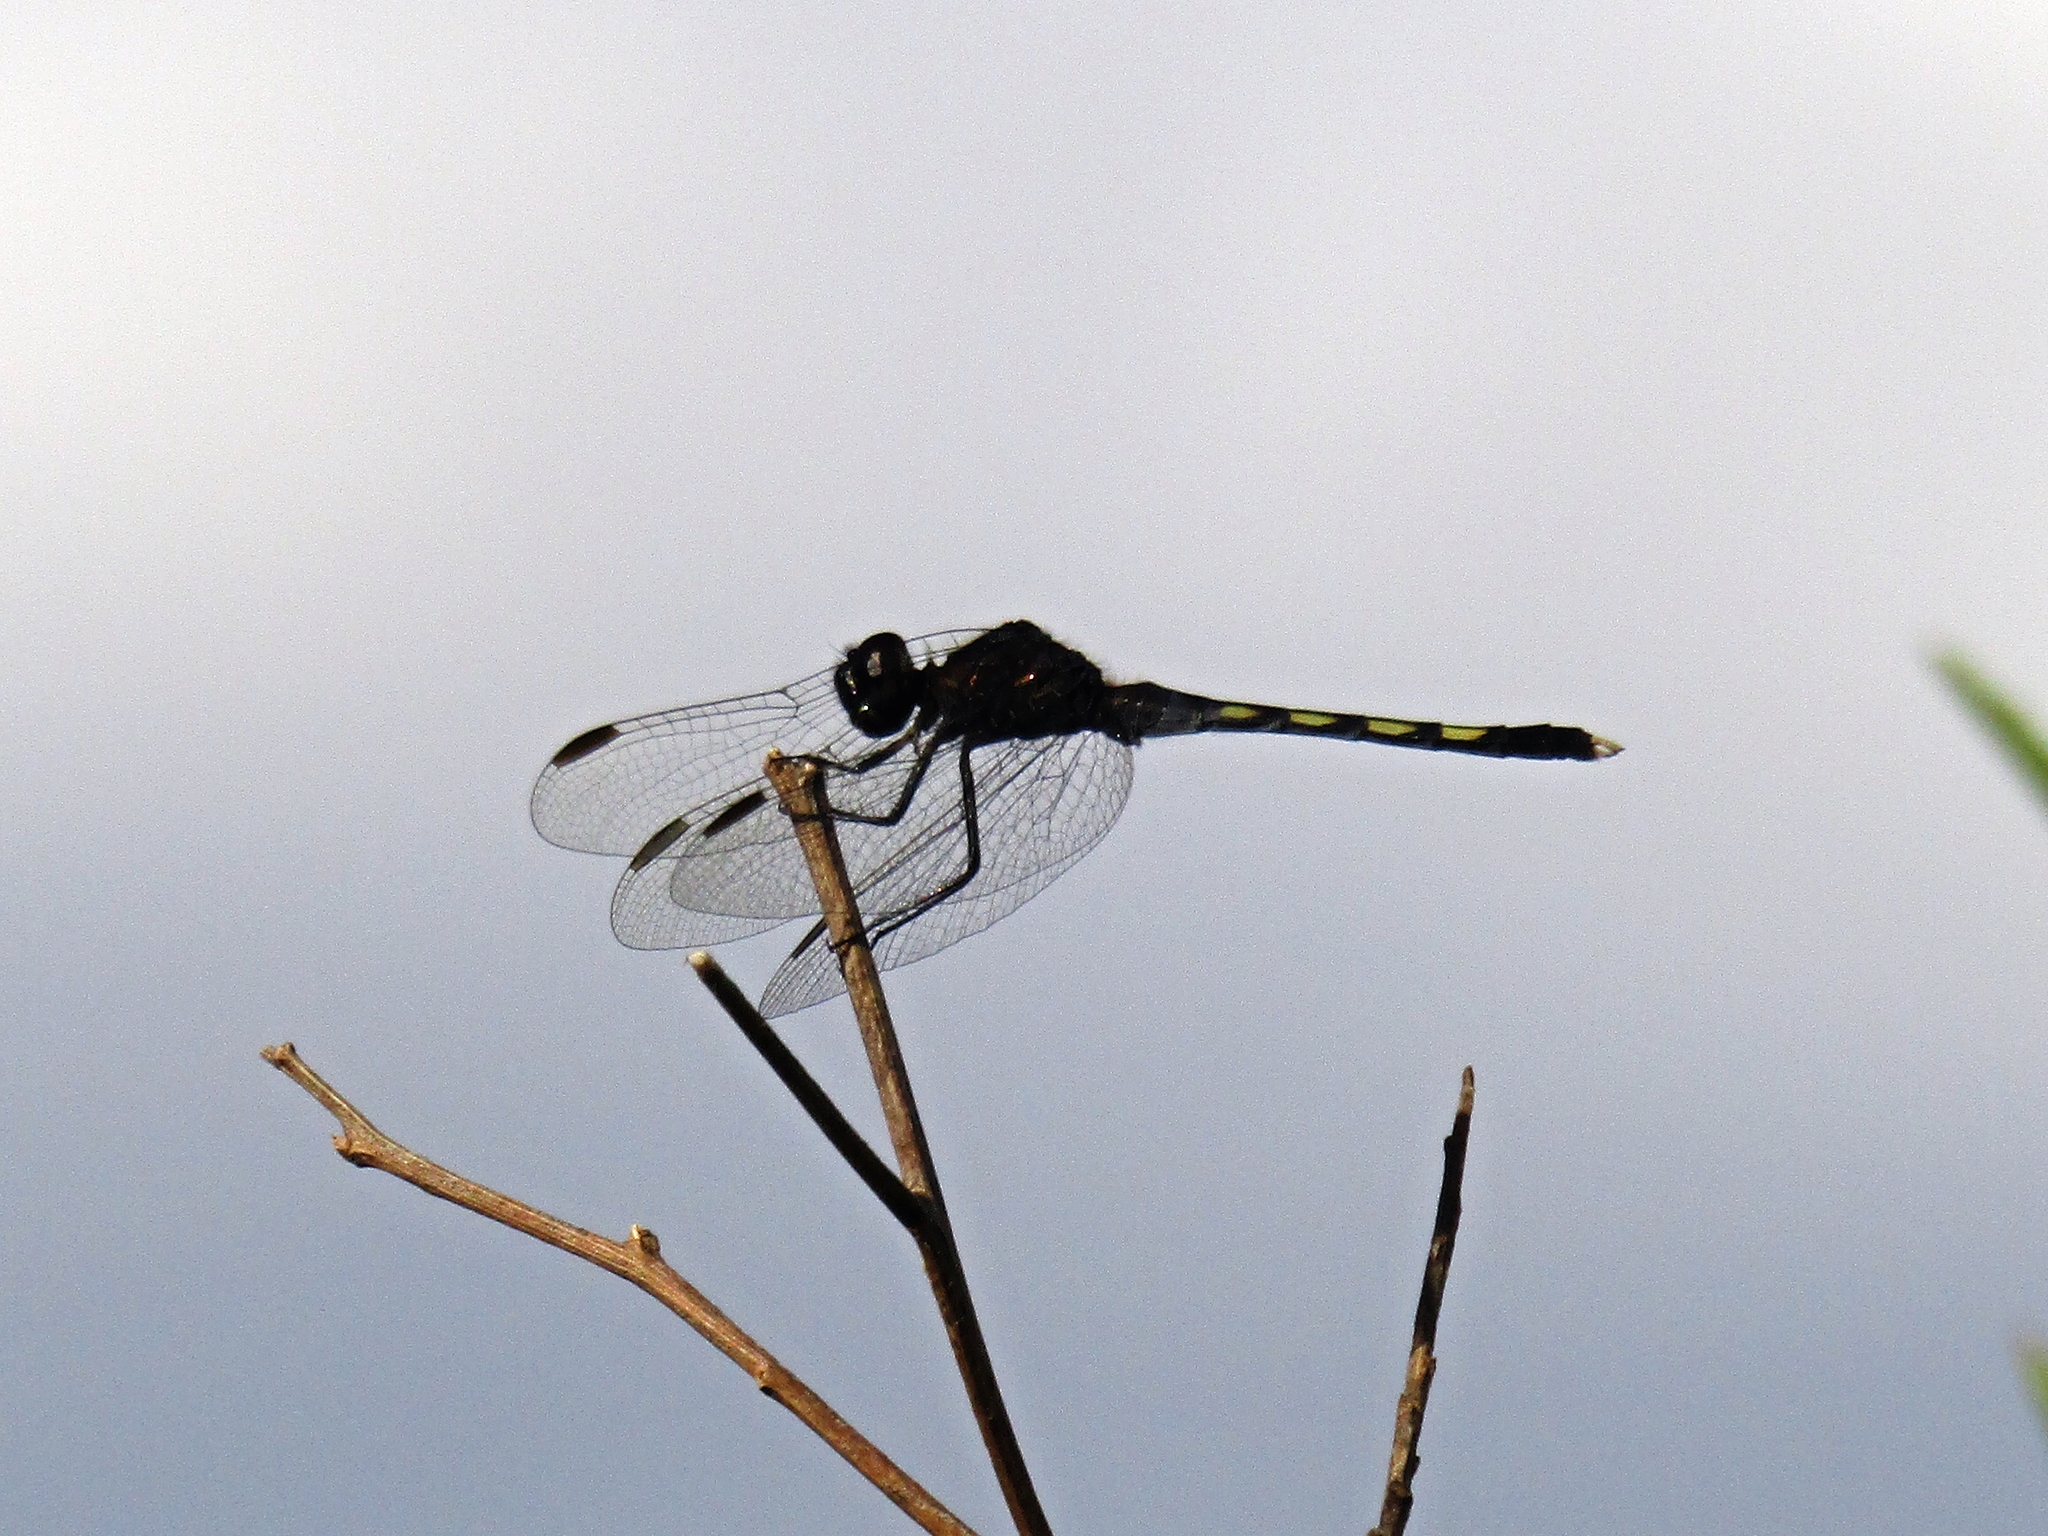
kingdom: Animalia
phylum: Arthropoda
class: Insecta
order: Odonata
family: Libellulidae
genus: Erythrodiplax
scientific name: Erythrodiplax nigricans
